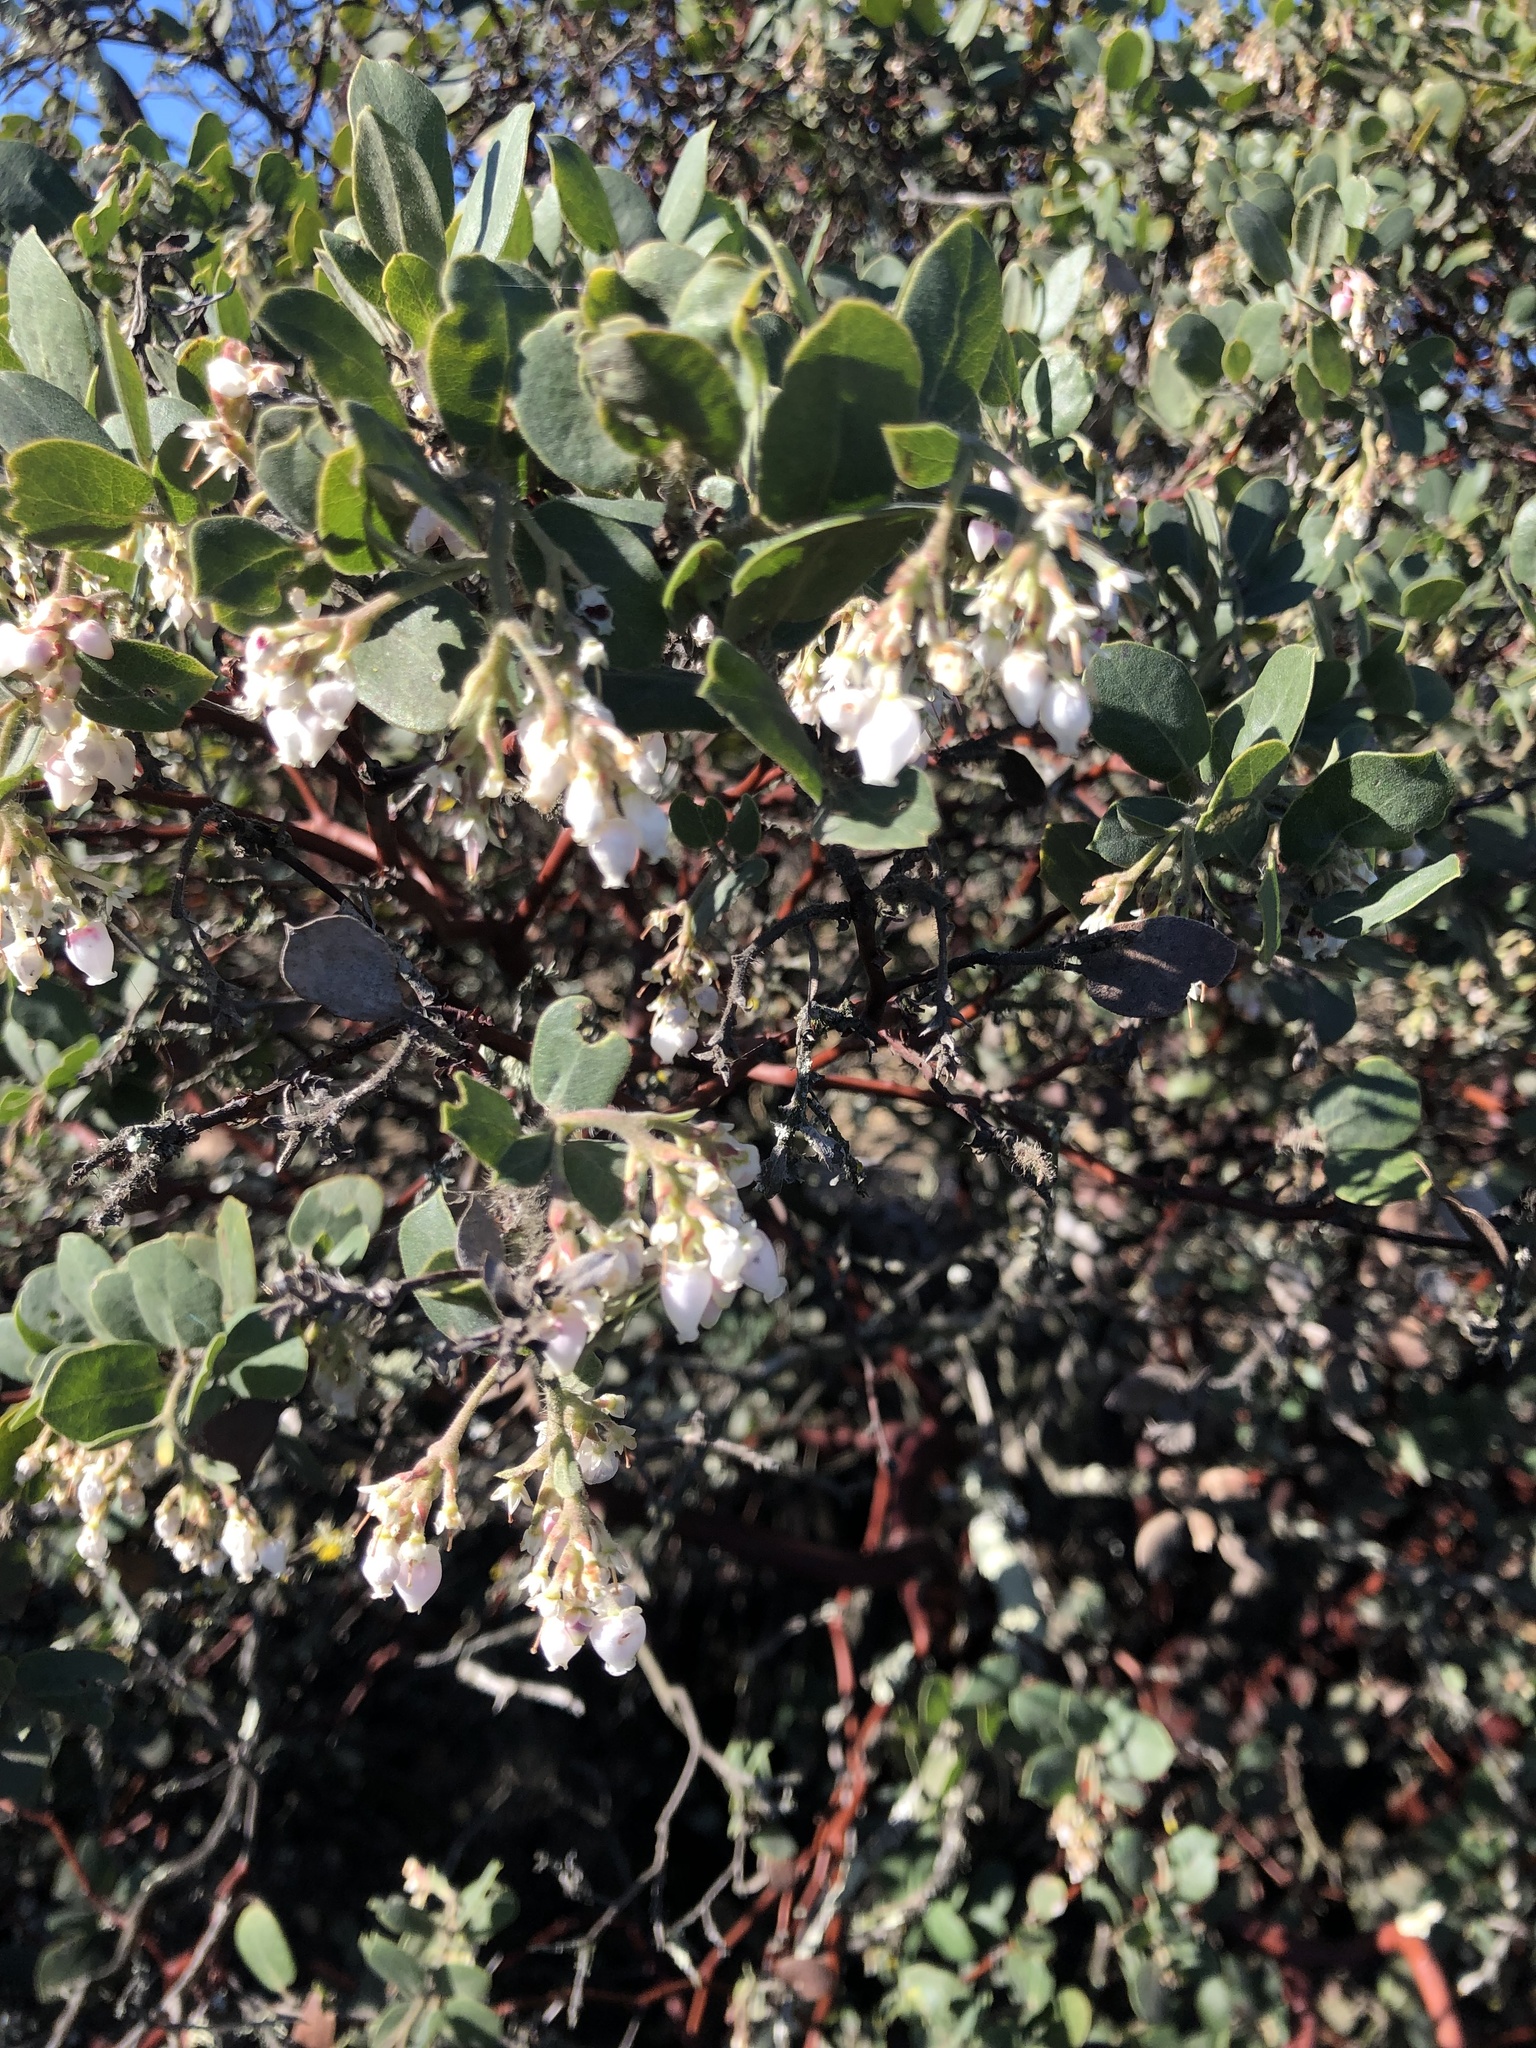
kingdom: Plantae
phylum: Tracheophyta
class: Magnoliopsida
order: Ericales
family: Ericaceae
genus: Arctostaphylos
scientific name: Arctostaphylos crustacea
